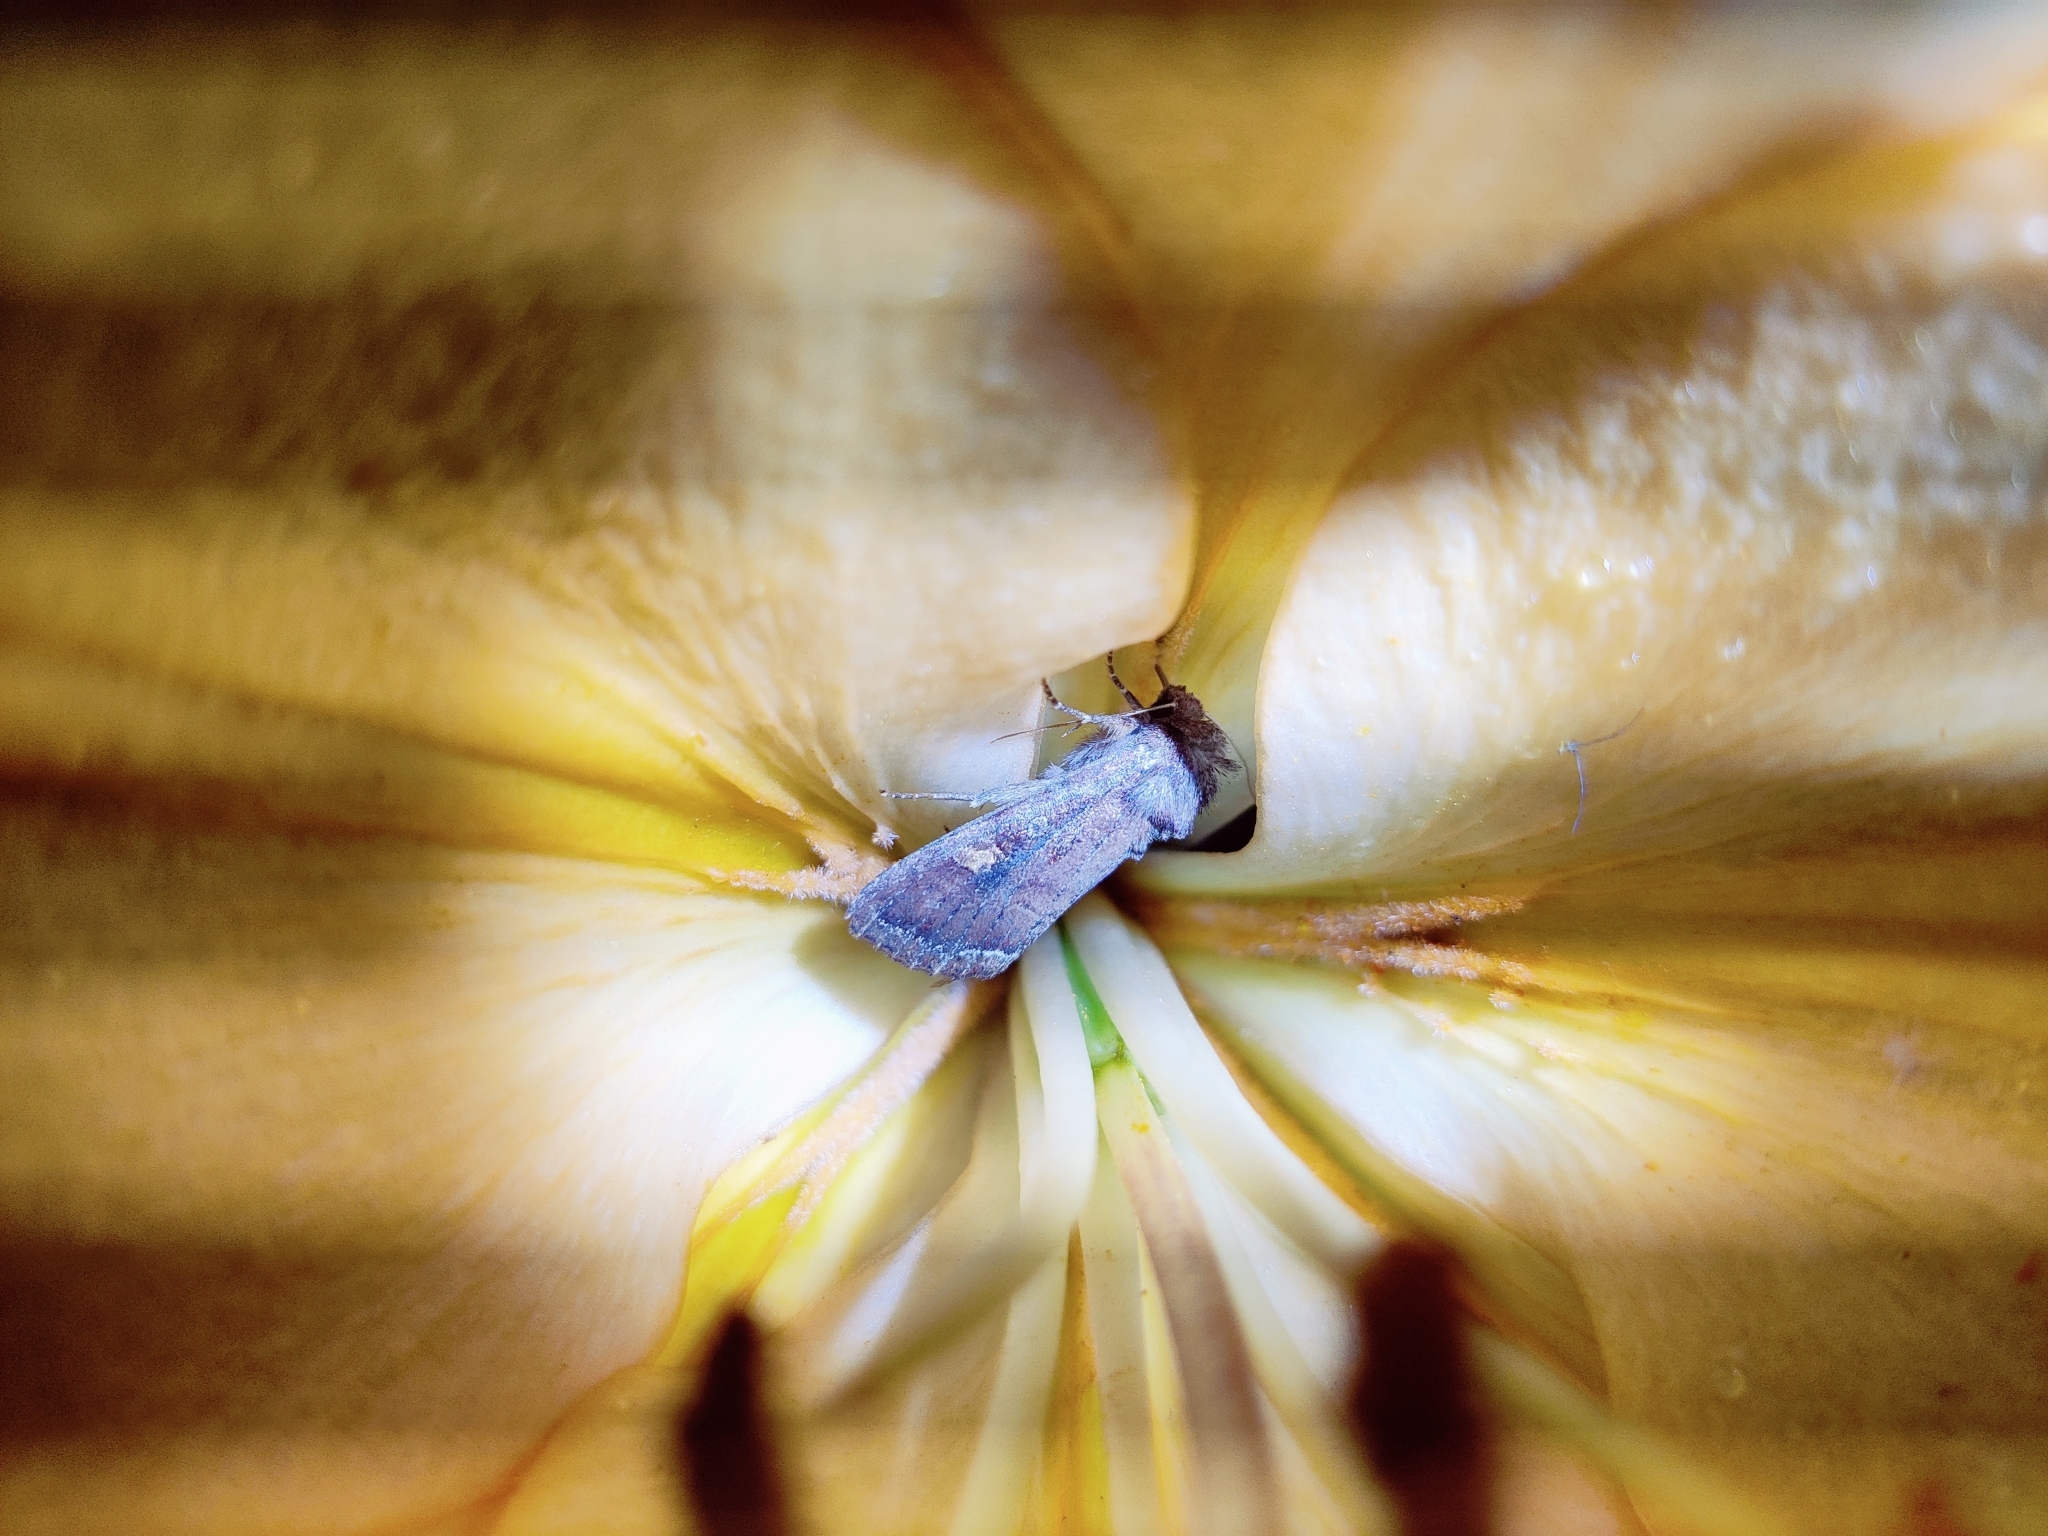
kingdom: Animalia
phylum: Arthropoda
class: Insecta
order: Lepidoptera
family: Noctuidae
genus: Lacanobia
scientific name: Lacanobia oleracea
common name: Bright-line brown-eye
